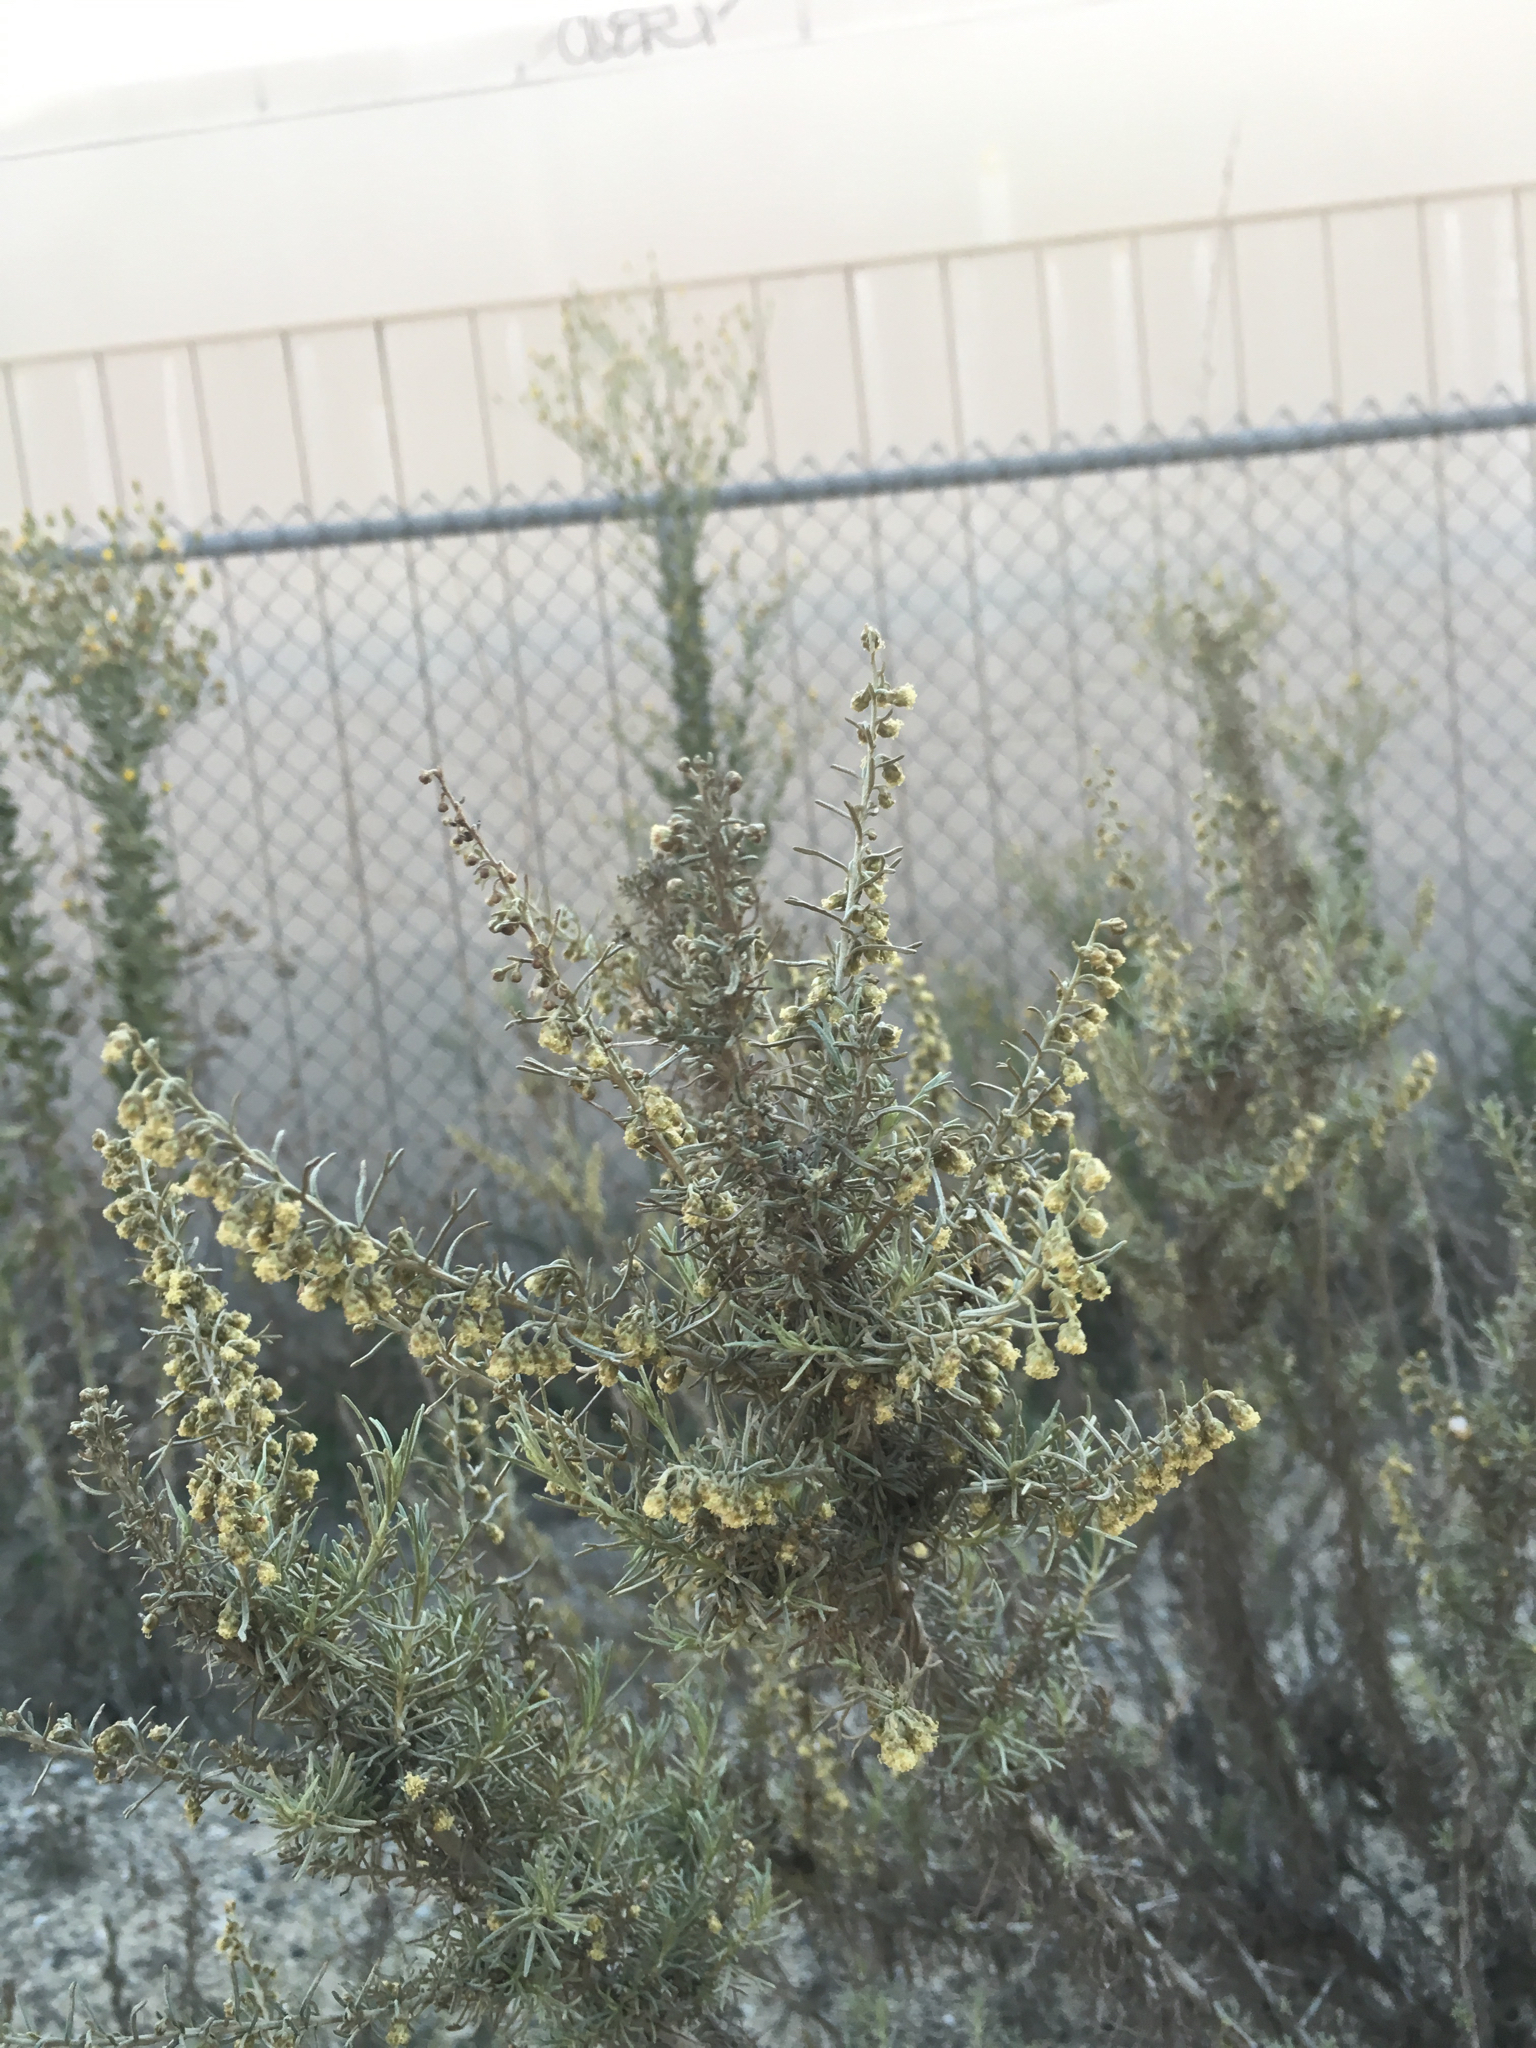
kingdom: Plantae
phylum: Tracheophyta
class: Magnoliopsida
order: Asterales
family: Asteraceae
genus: Artemisia
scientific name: Artemisia californica
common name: California sagebrush
